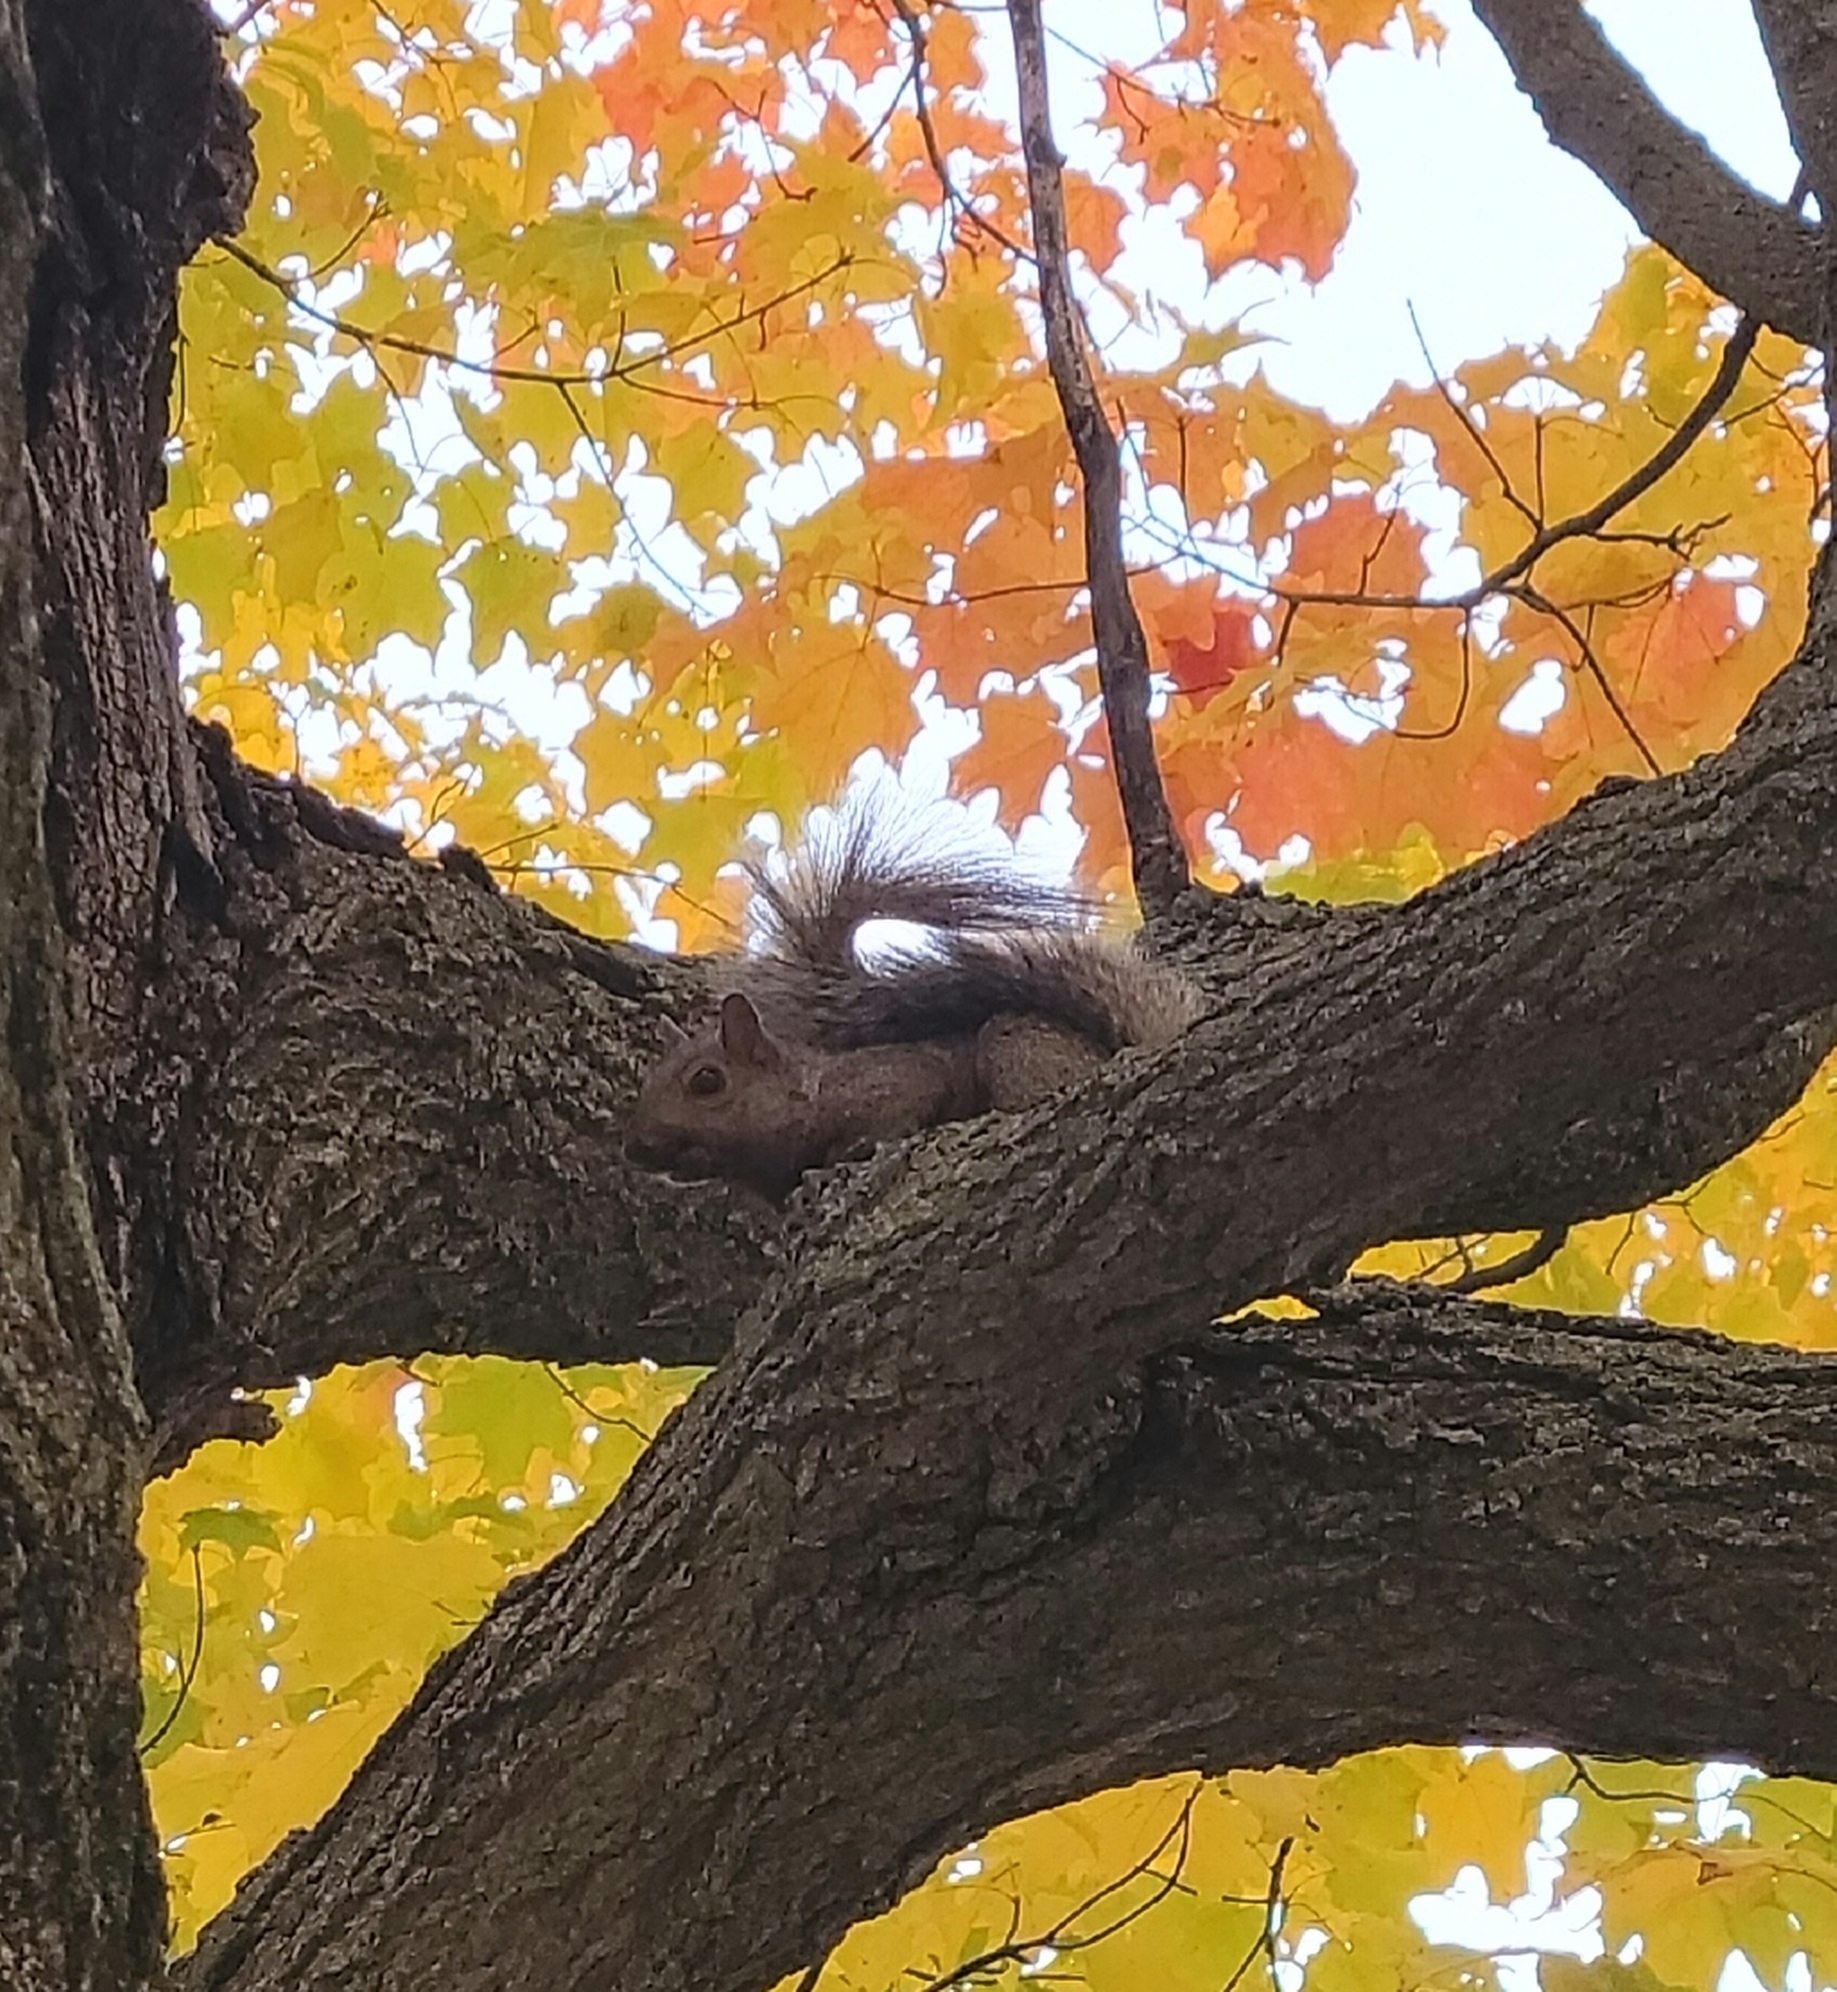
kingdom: Animalia
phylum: Chordata
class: Mammalia
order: Rodentia
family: Sciuridae
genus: Sciurus
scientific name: Sciurus carolinensis
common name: Eastern gray squirrel
